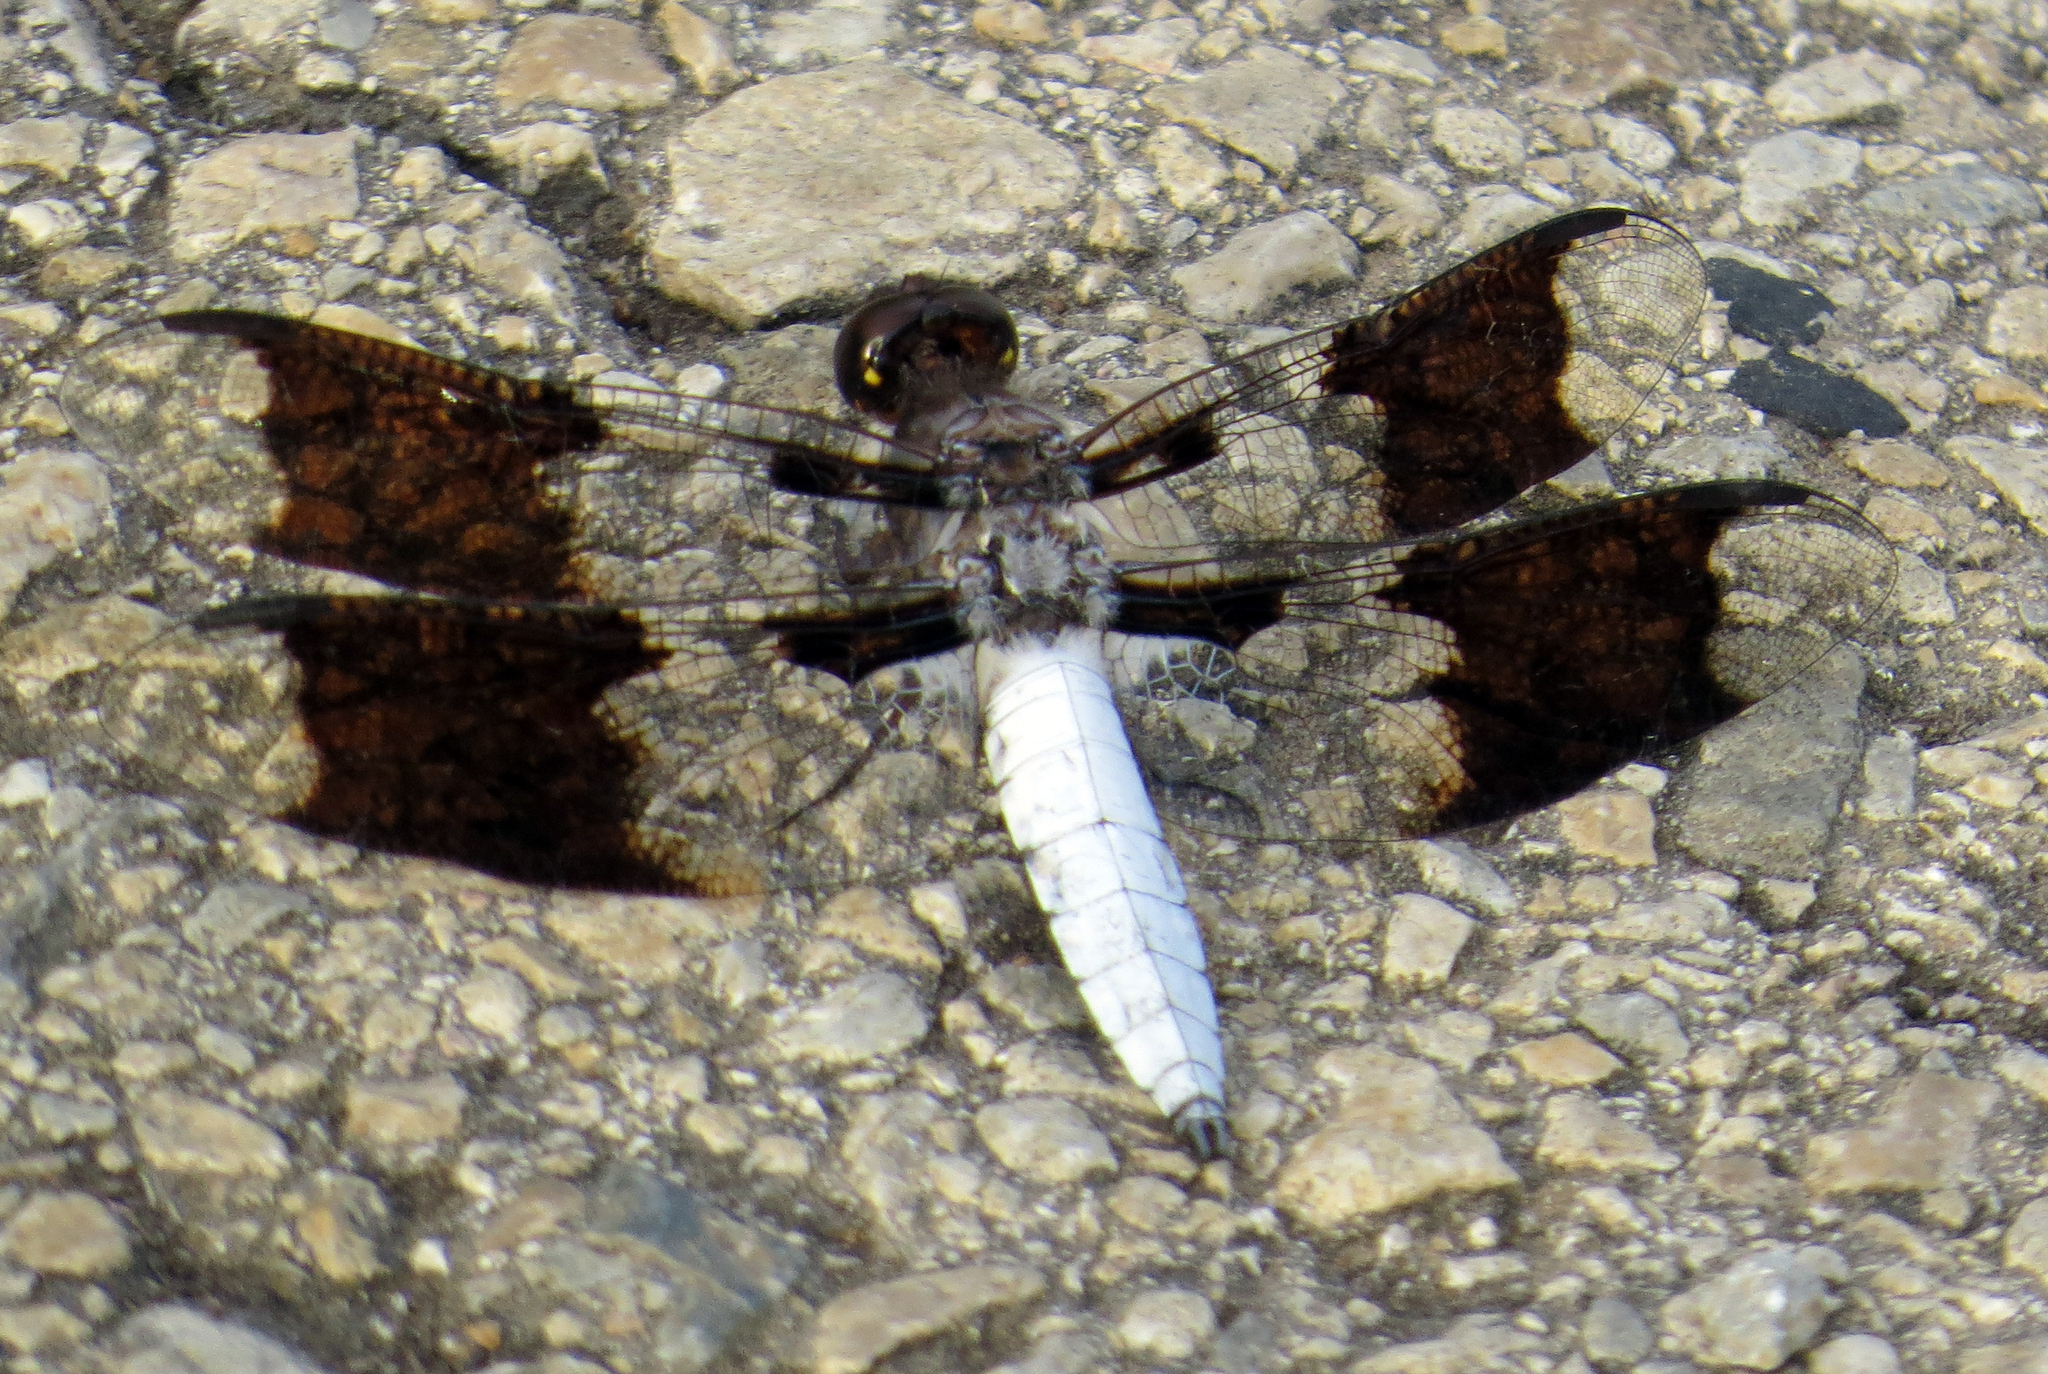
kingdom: Animalia
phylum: Arthropoda
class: Insecta
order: Odonata
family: Libellulidae
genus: Plathemis
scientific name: Plathemis lydia
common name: Common whitetail
